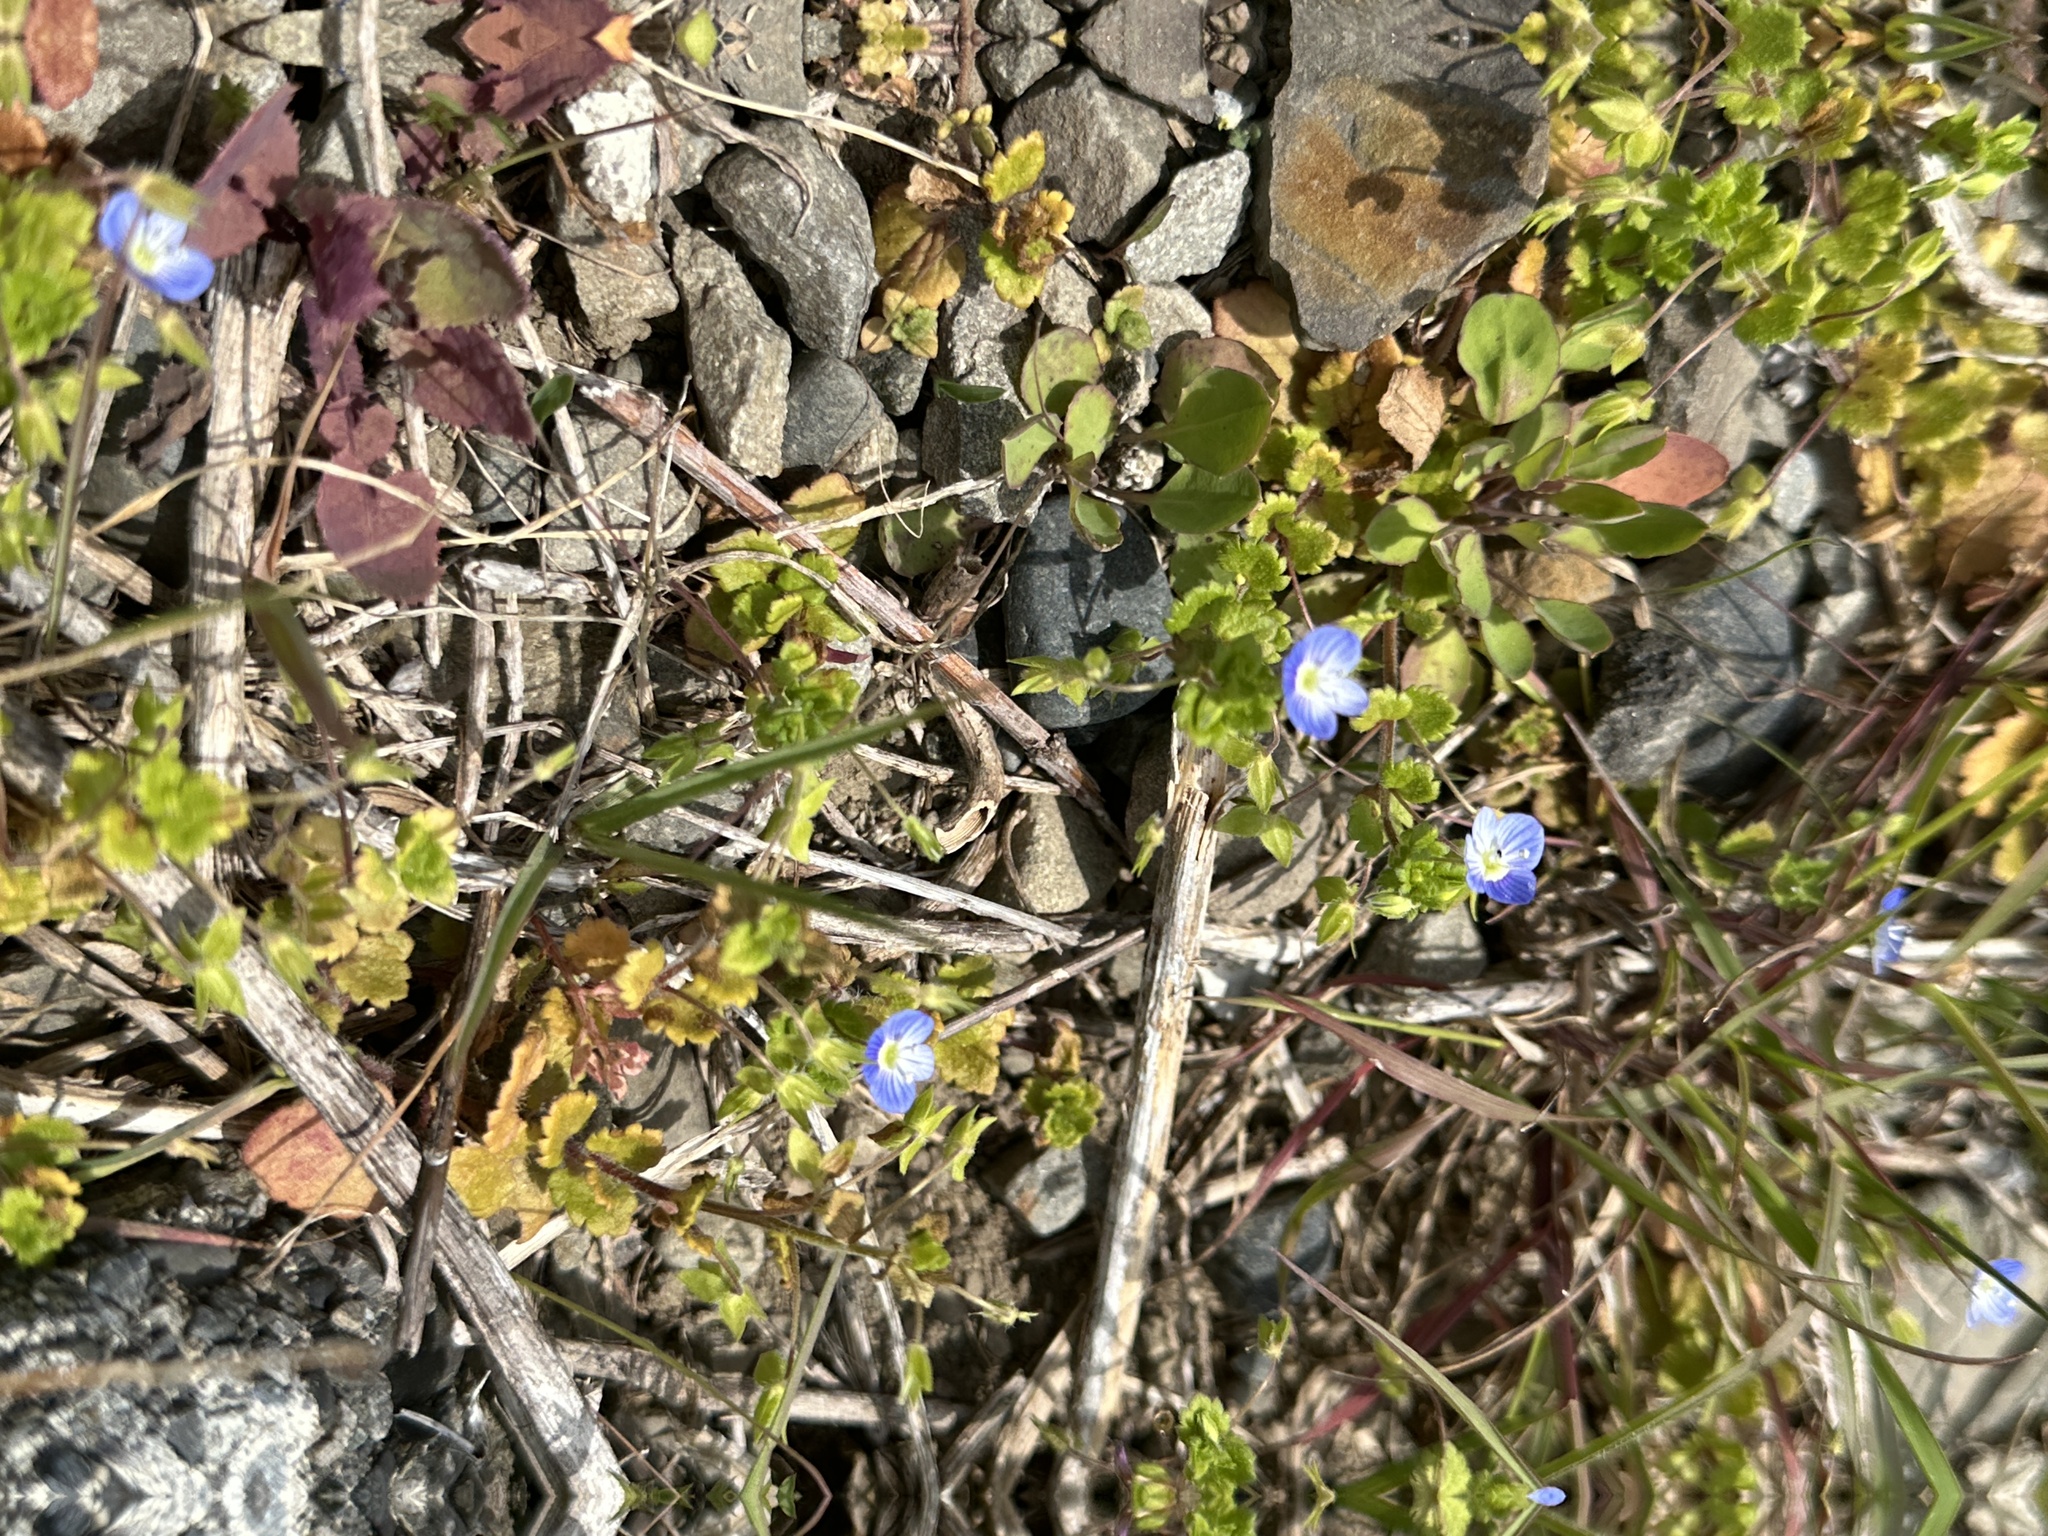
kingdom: Plantae
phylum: Tracheophyta
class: Magnoliopsida
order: Lamiales
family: Plantaginaceae
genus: Veronica
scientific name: Veronica persica
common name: Common field-speedwell
